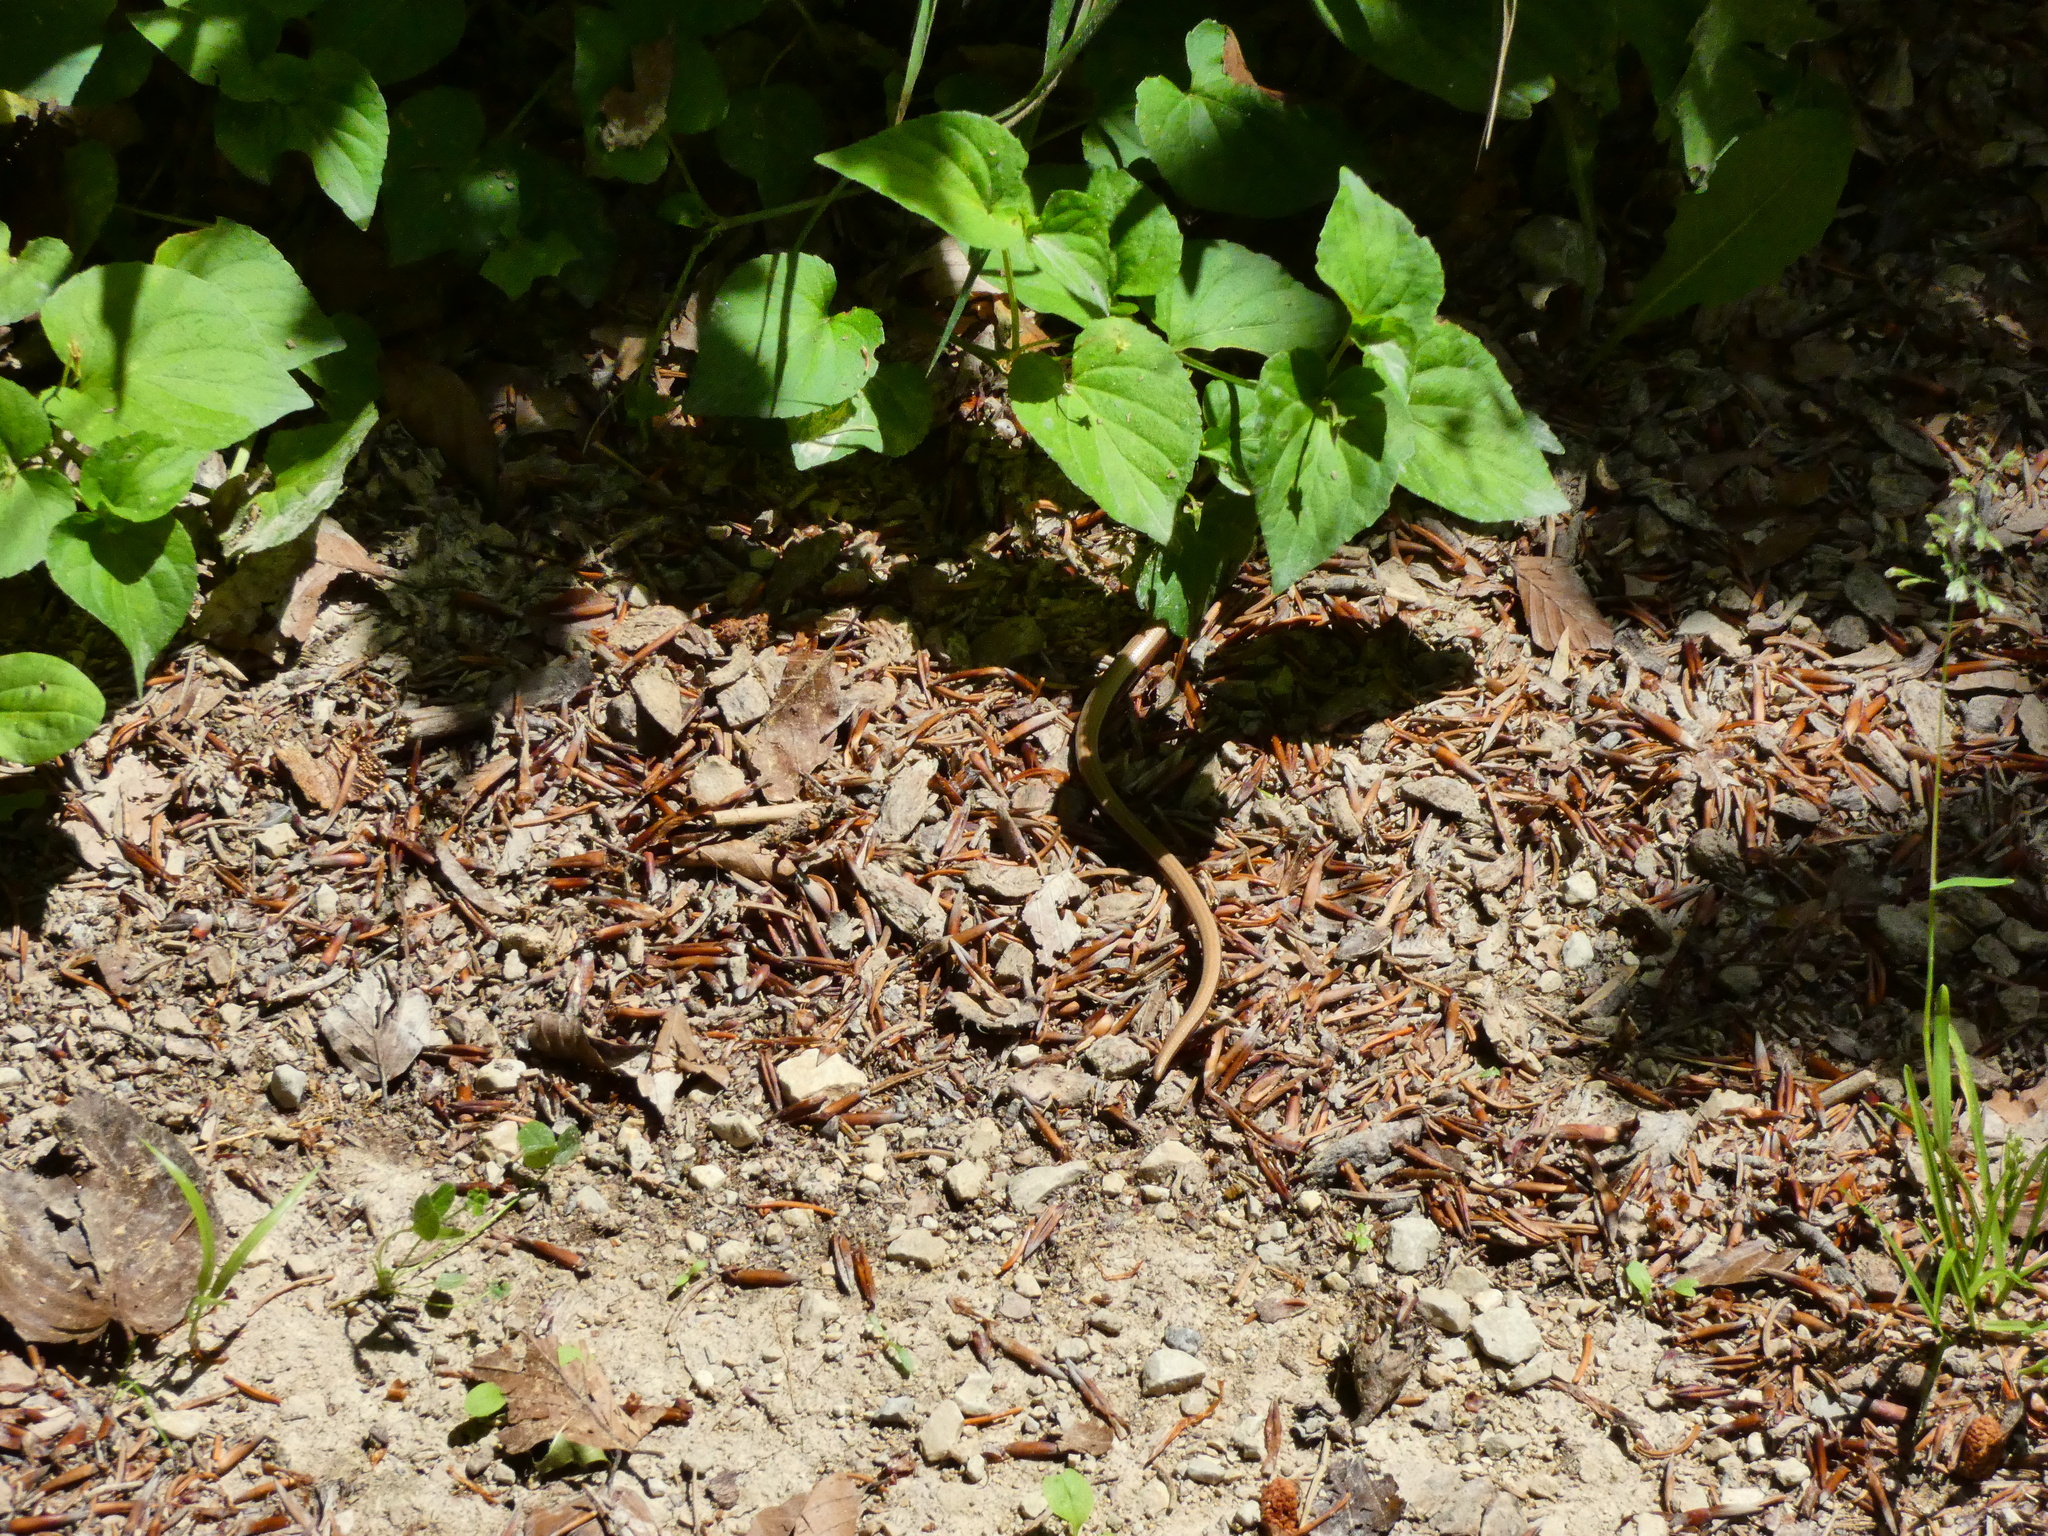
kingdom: Animalia
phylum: Chordata
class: Squamata
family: Anguidae
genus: Anguis
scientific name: Anguis fragilis
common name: Slow worm
